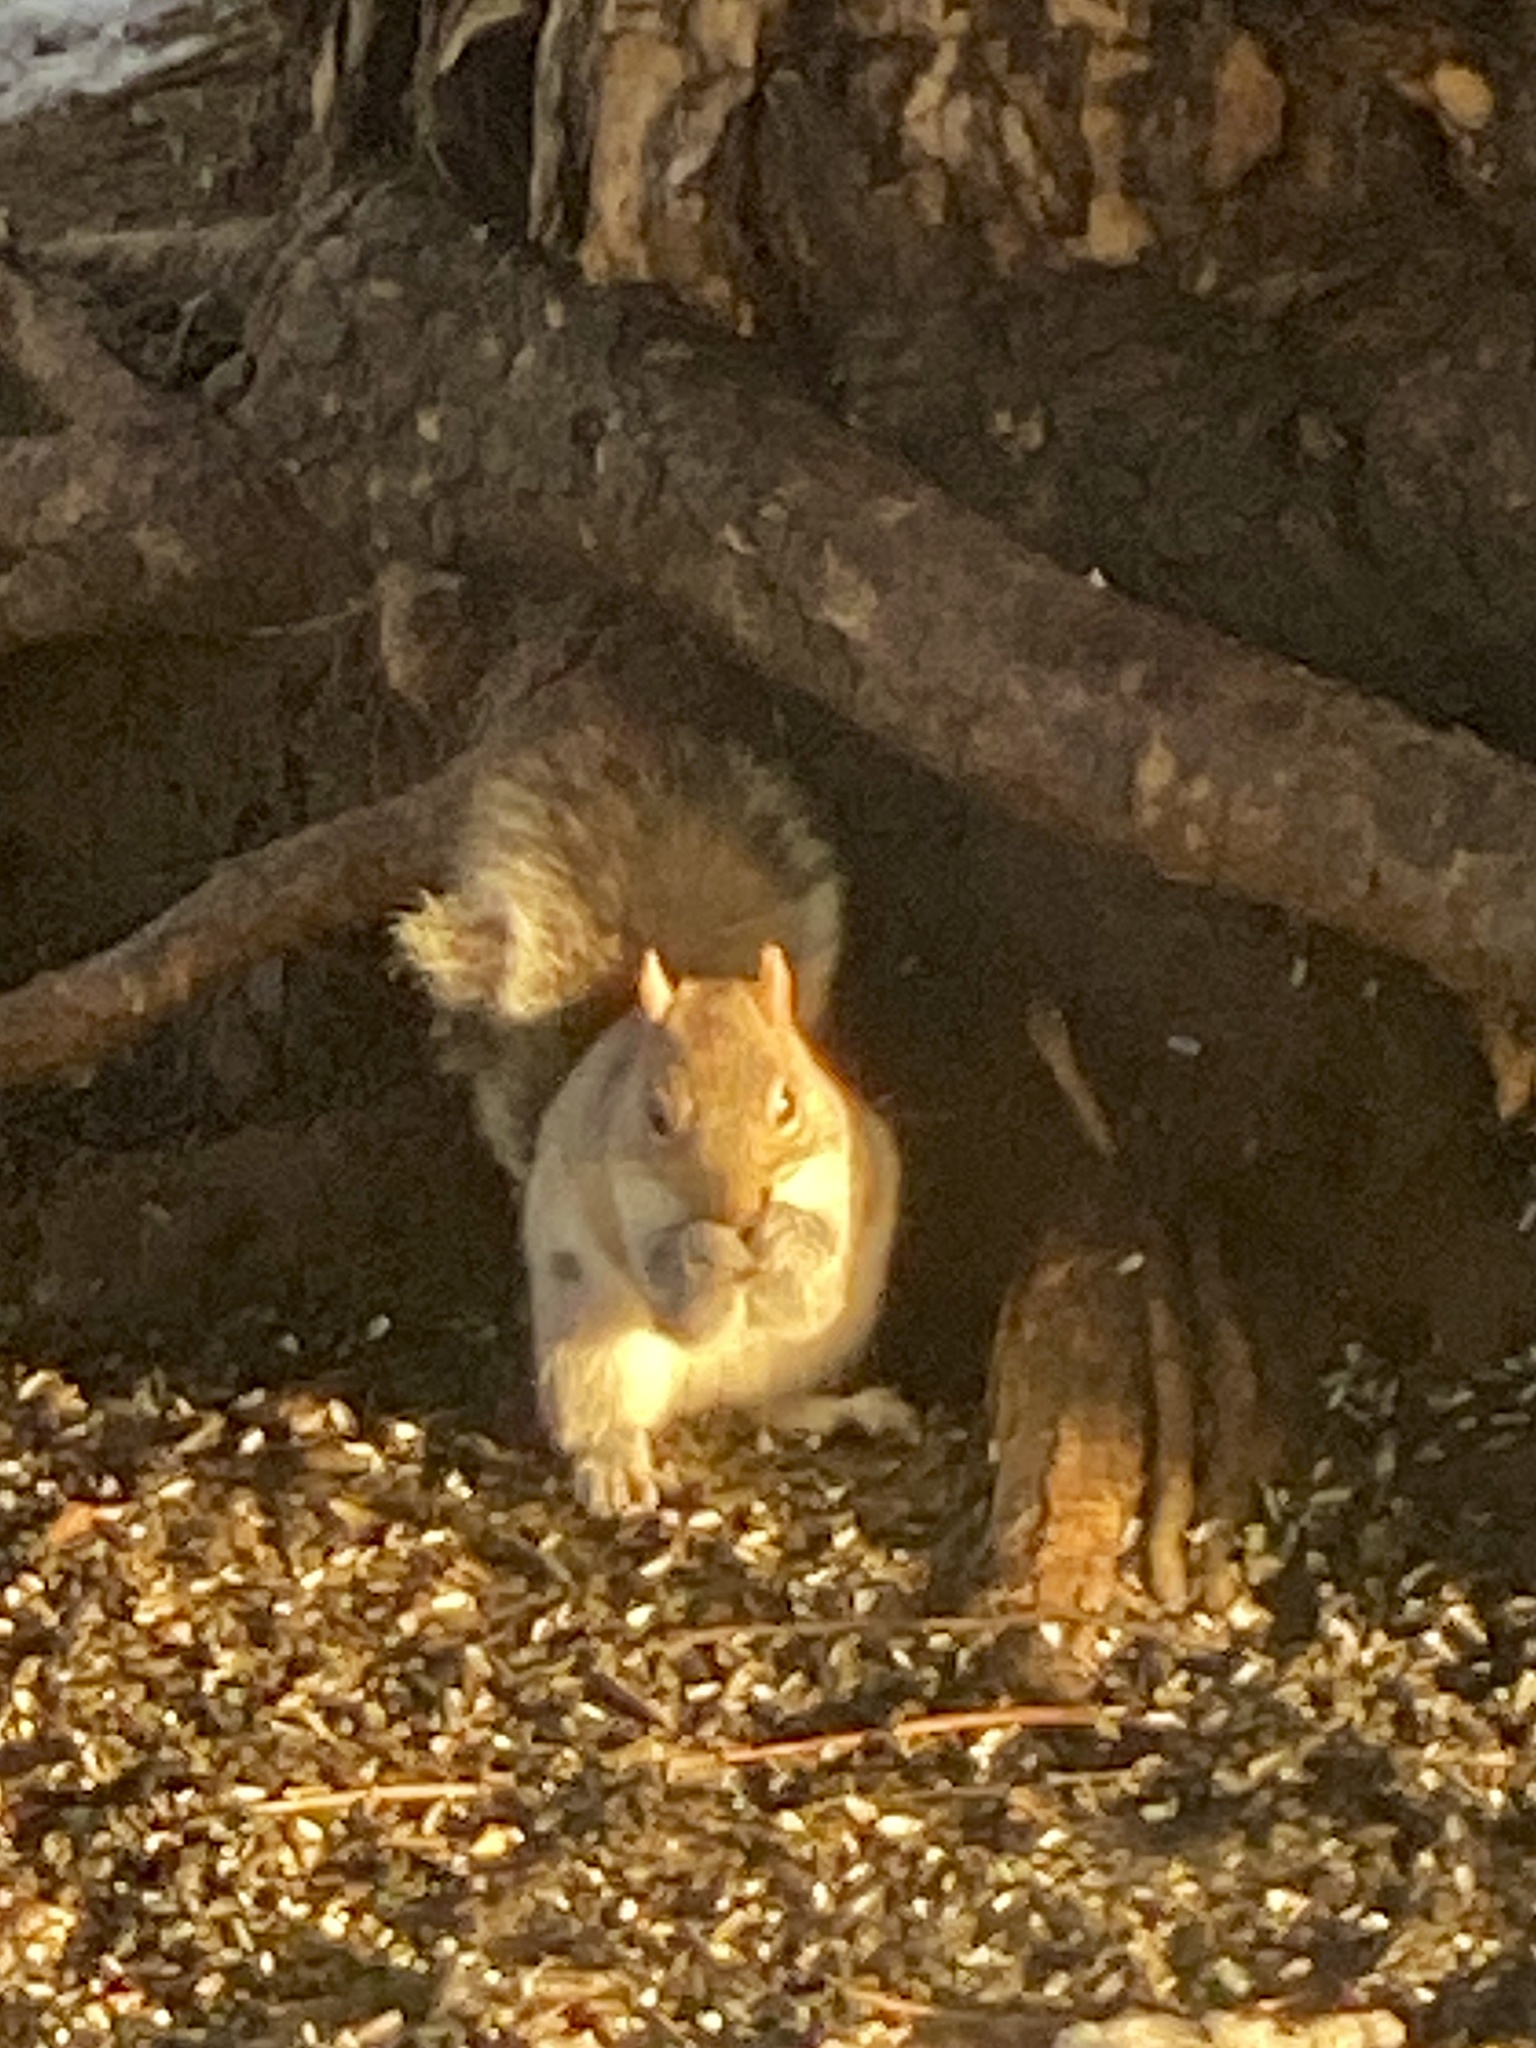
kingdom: Animalia
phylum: Chordata
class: Mammalia
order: Rodentia
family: Sciuridae
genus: Sciurus
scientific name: Sciurus carolinensis
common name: Eastern gray squirrel
